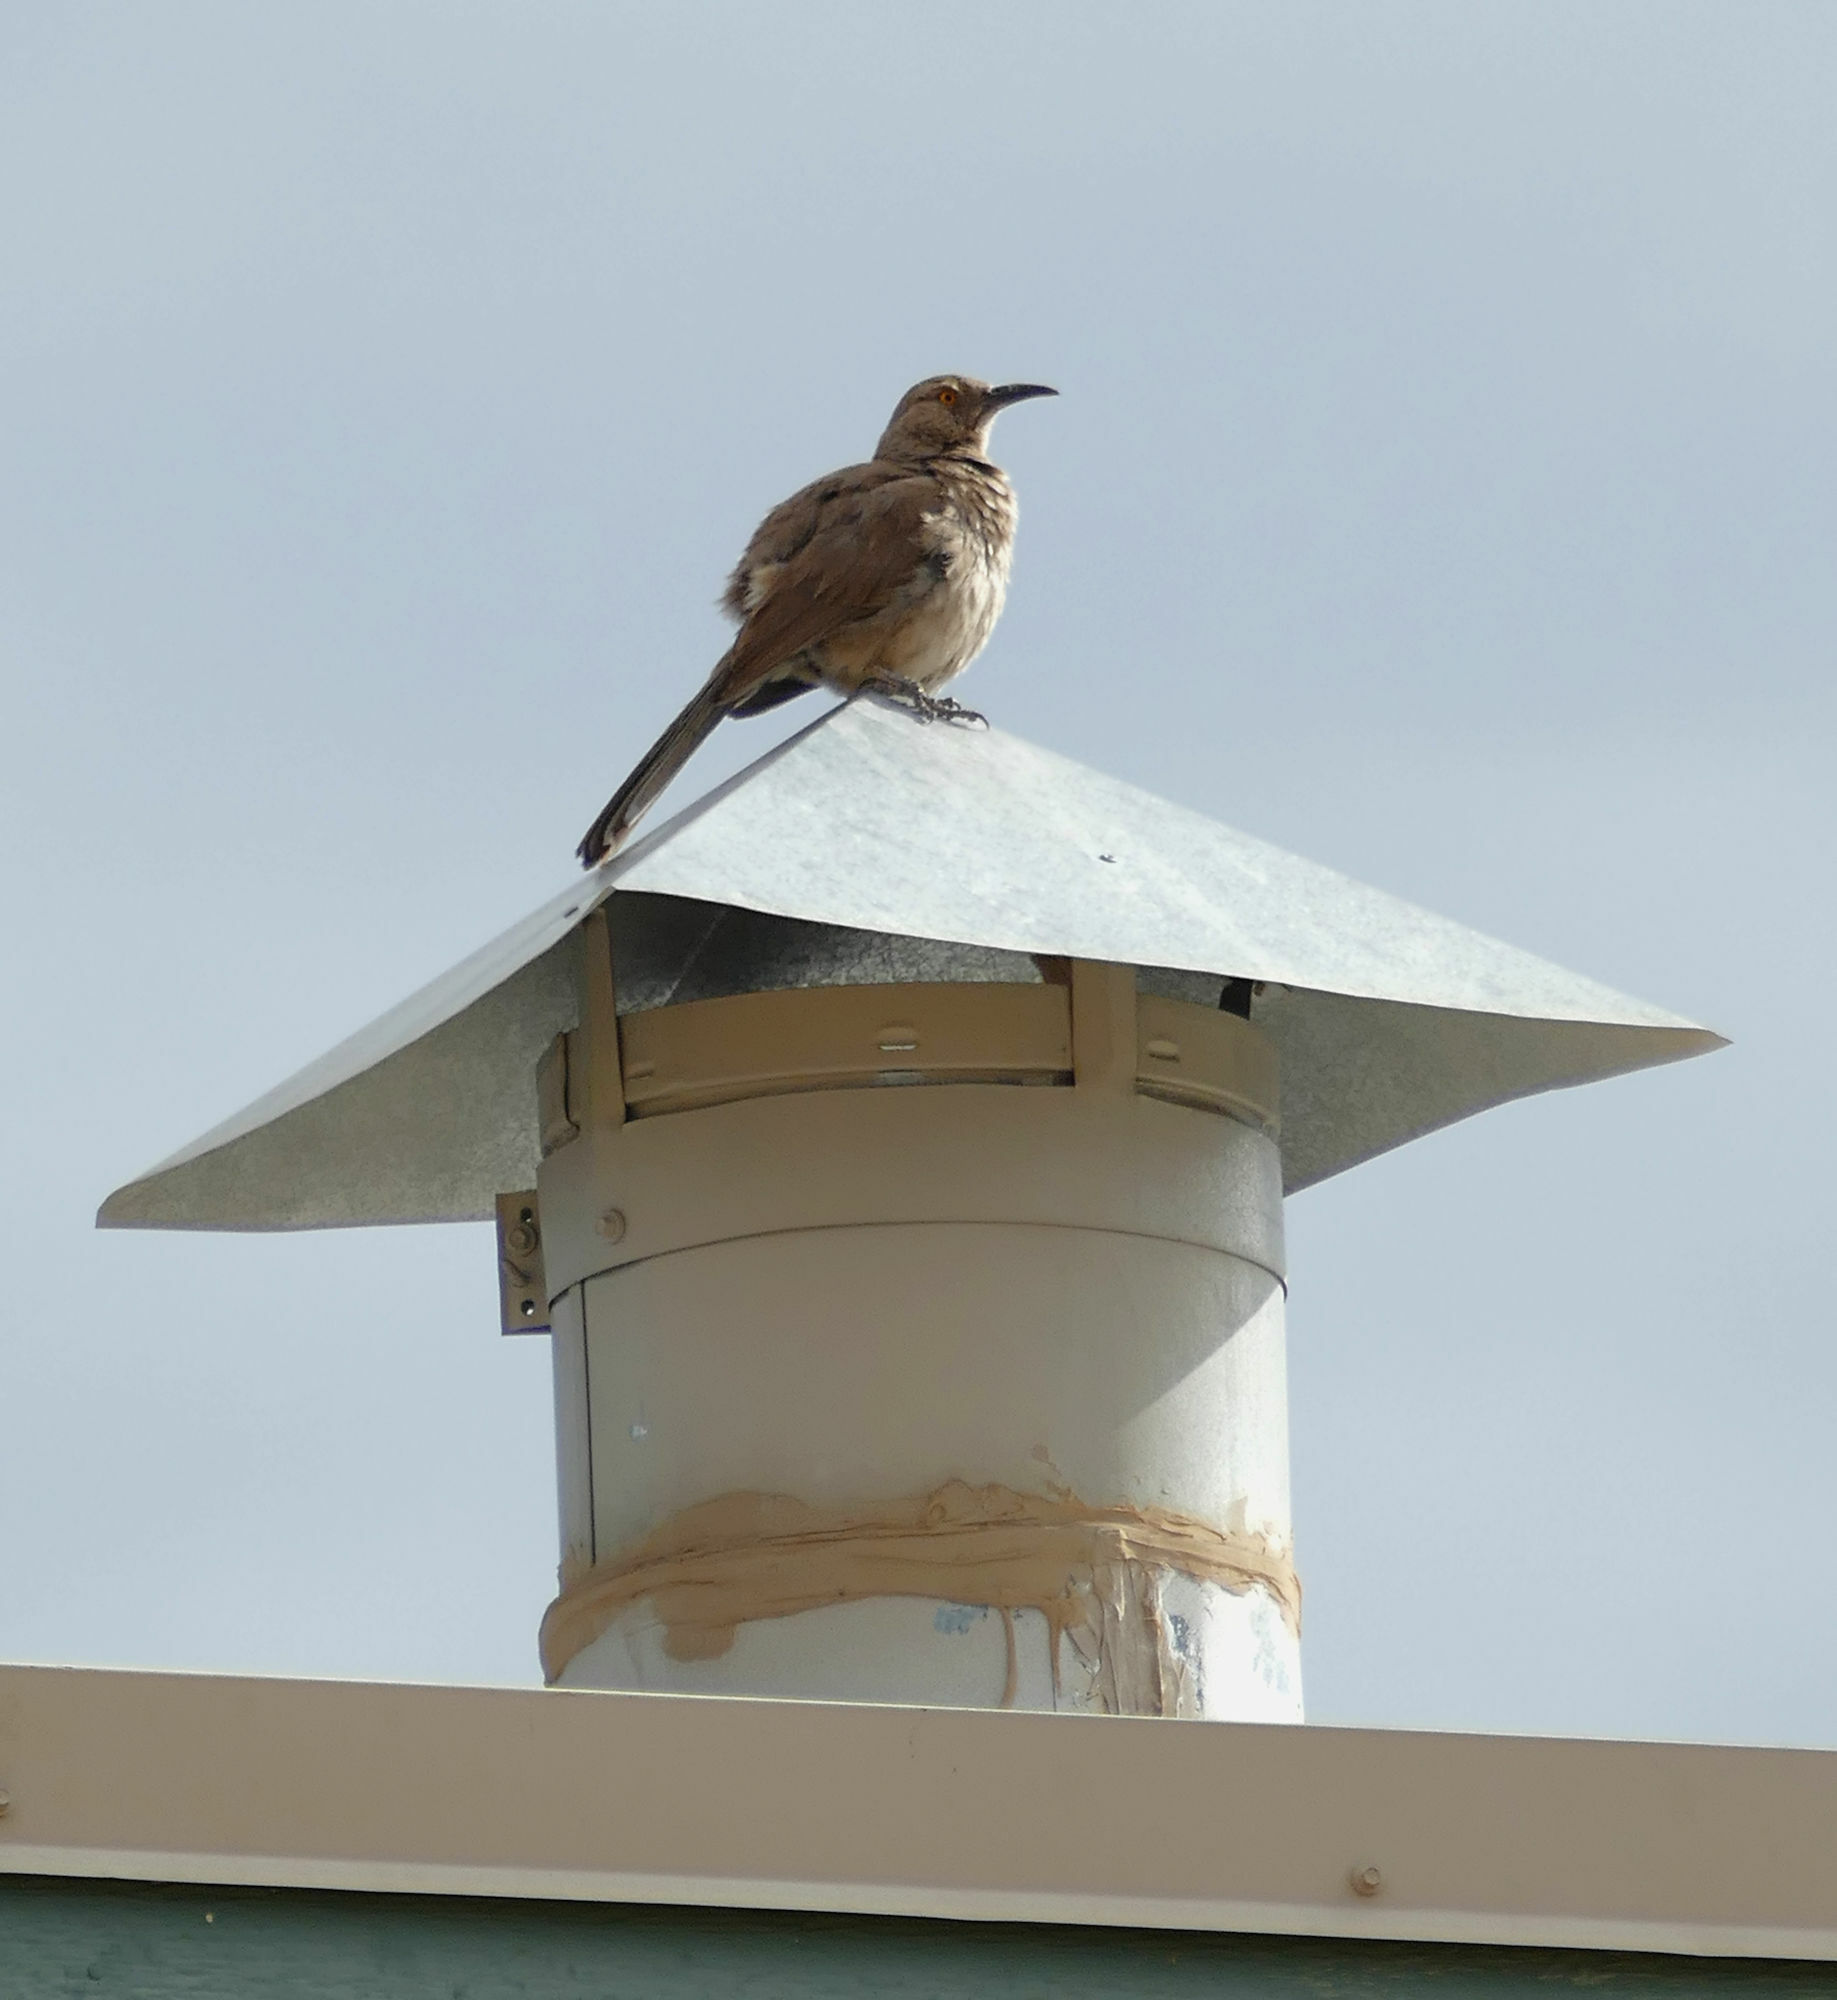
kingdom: Animalia
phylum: Chordata
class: Aves
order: Passeriformes
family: Mimidae
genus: Toxostoma
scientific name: Toxostoma curvirostre
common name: Curve-billed thrasher
